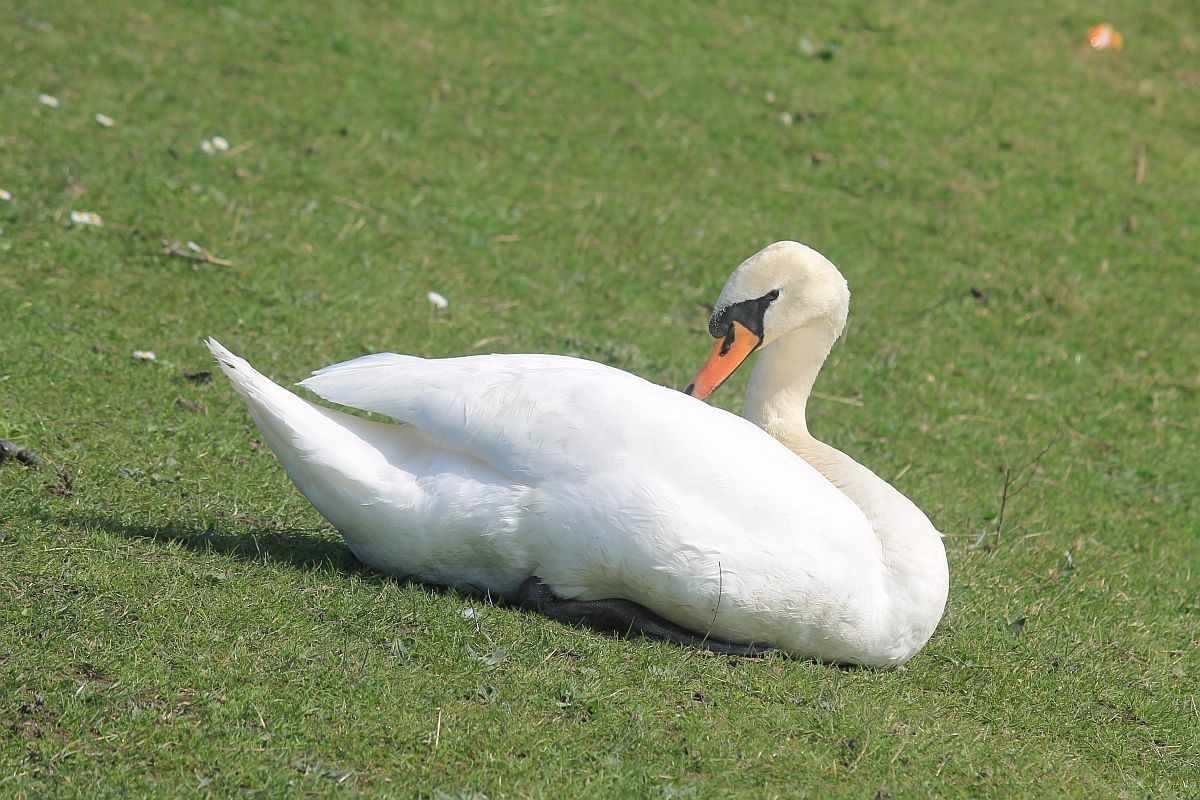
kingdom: Animalia
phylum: Chordata
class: Aves
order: Anseriformes
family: Anatidae
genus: Cygnus
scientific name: Cygnus olor
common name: Mute swan
